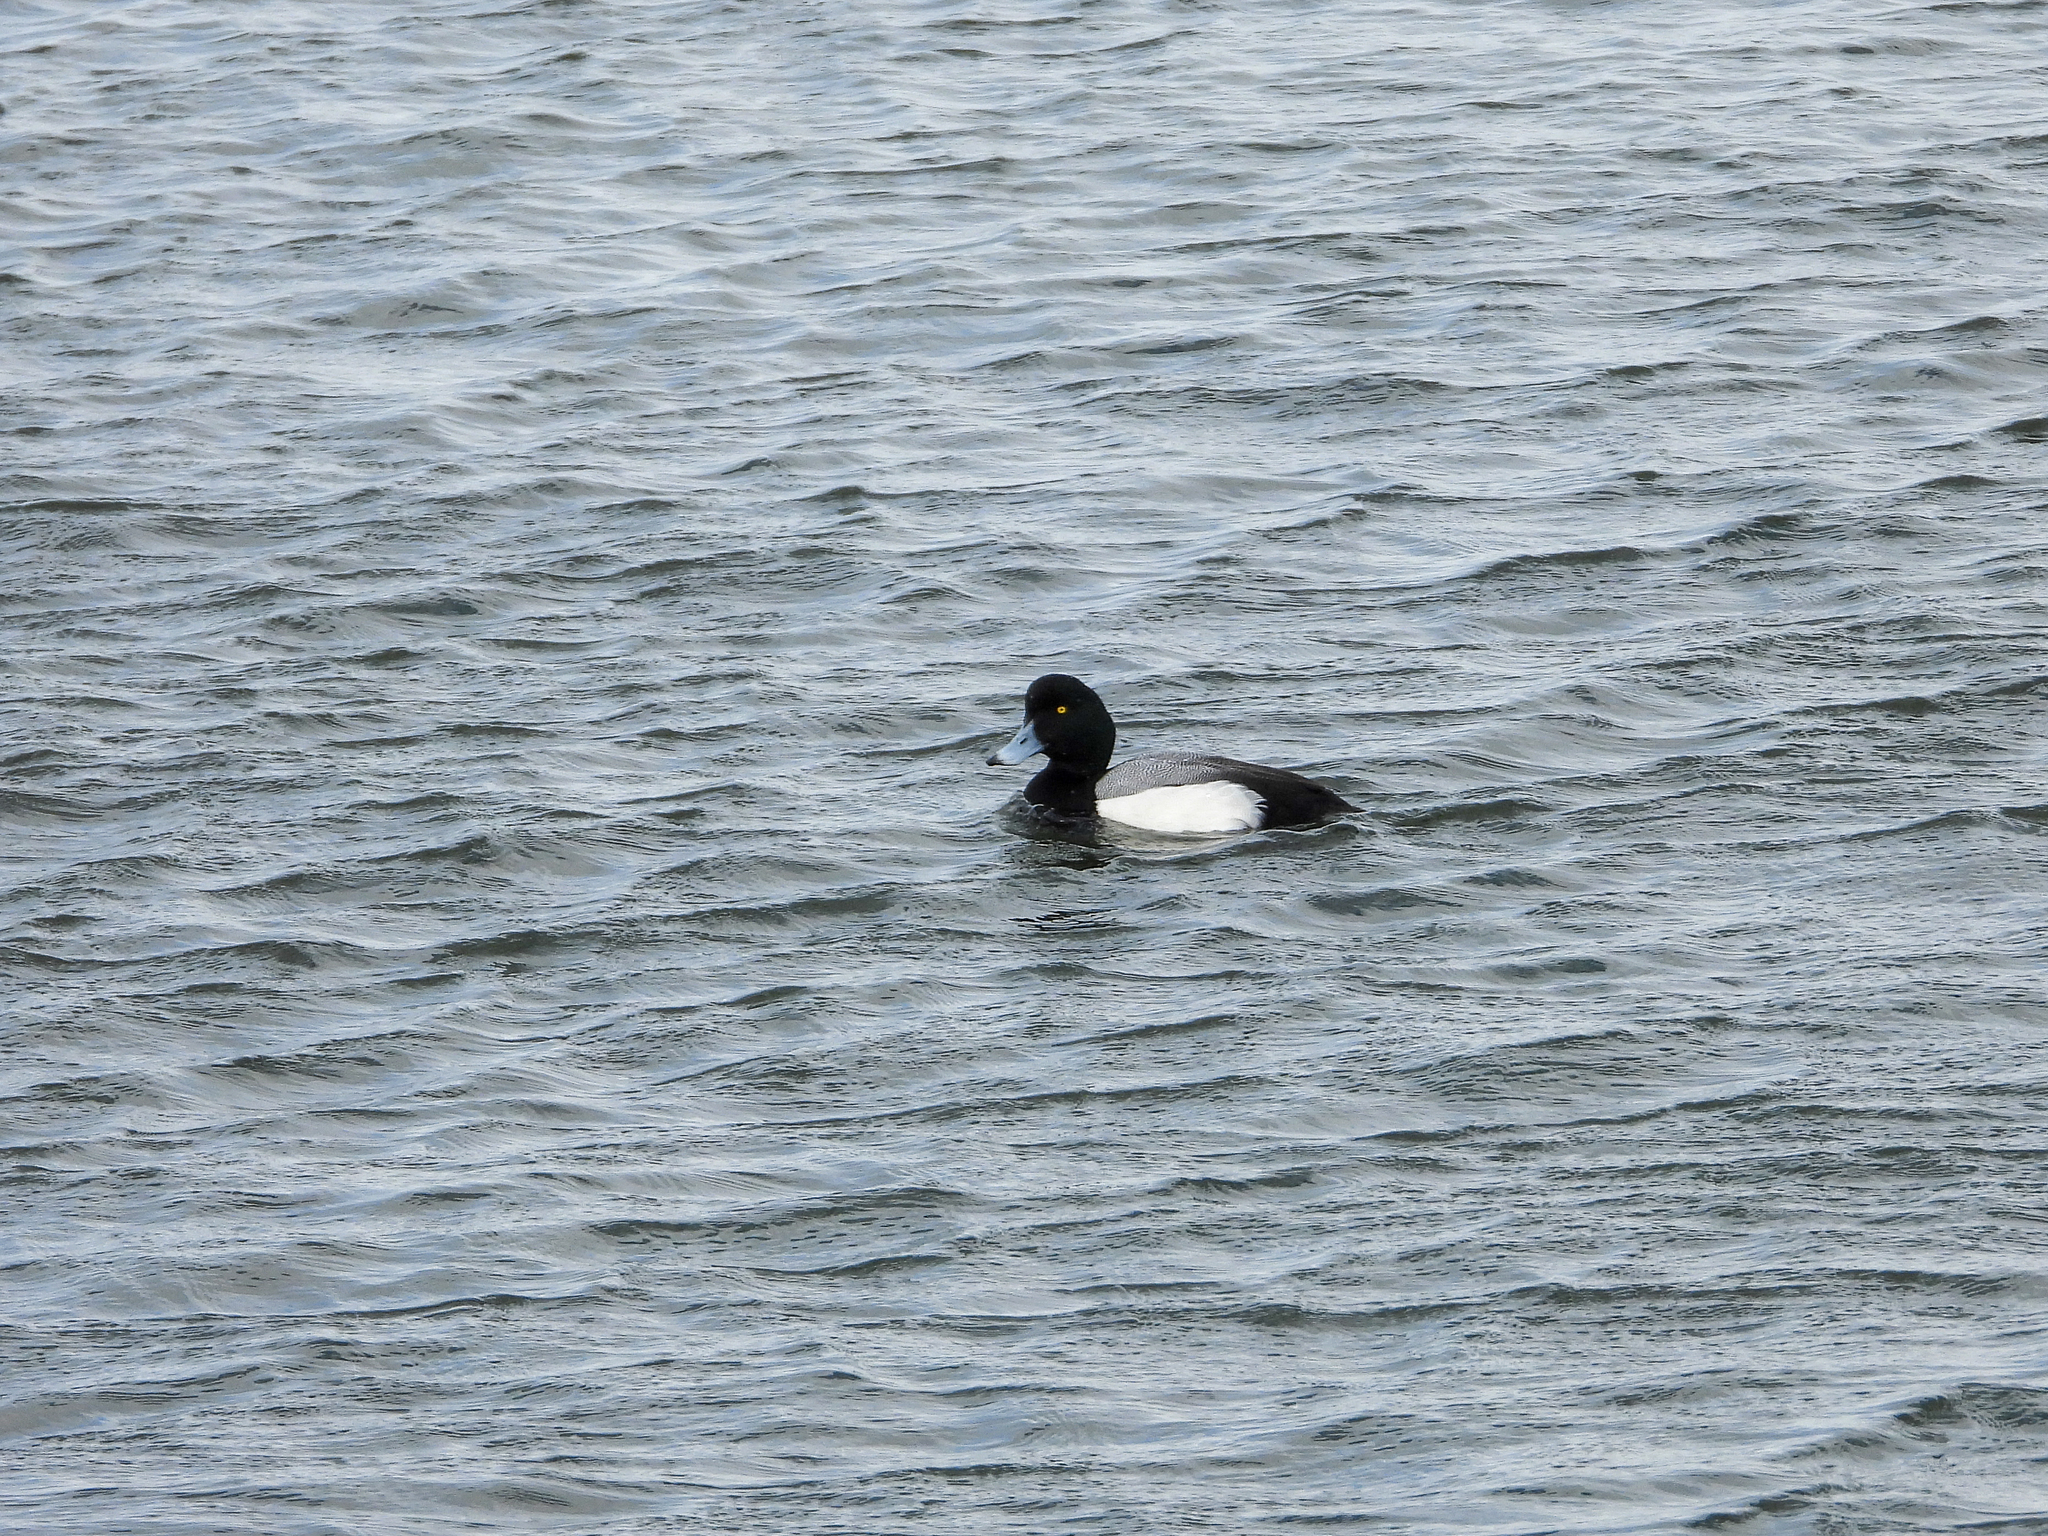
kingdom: Animalia
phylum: Chordata
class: Aves
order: Anseriformes
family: Anatidae
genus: Aythya
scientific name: Aythya marila
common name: Greater scaup
